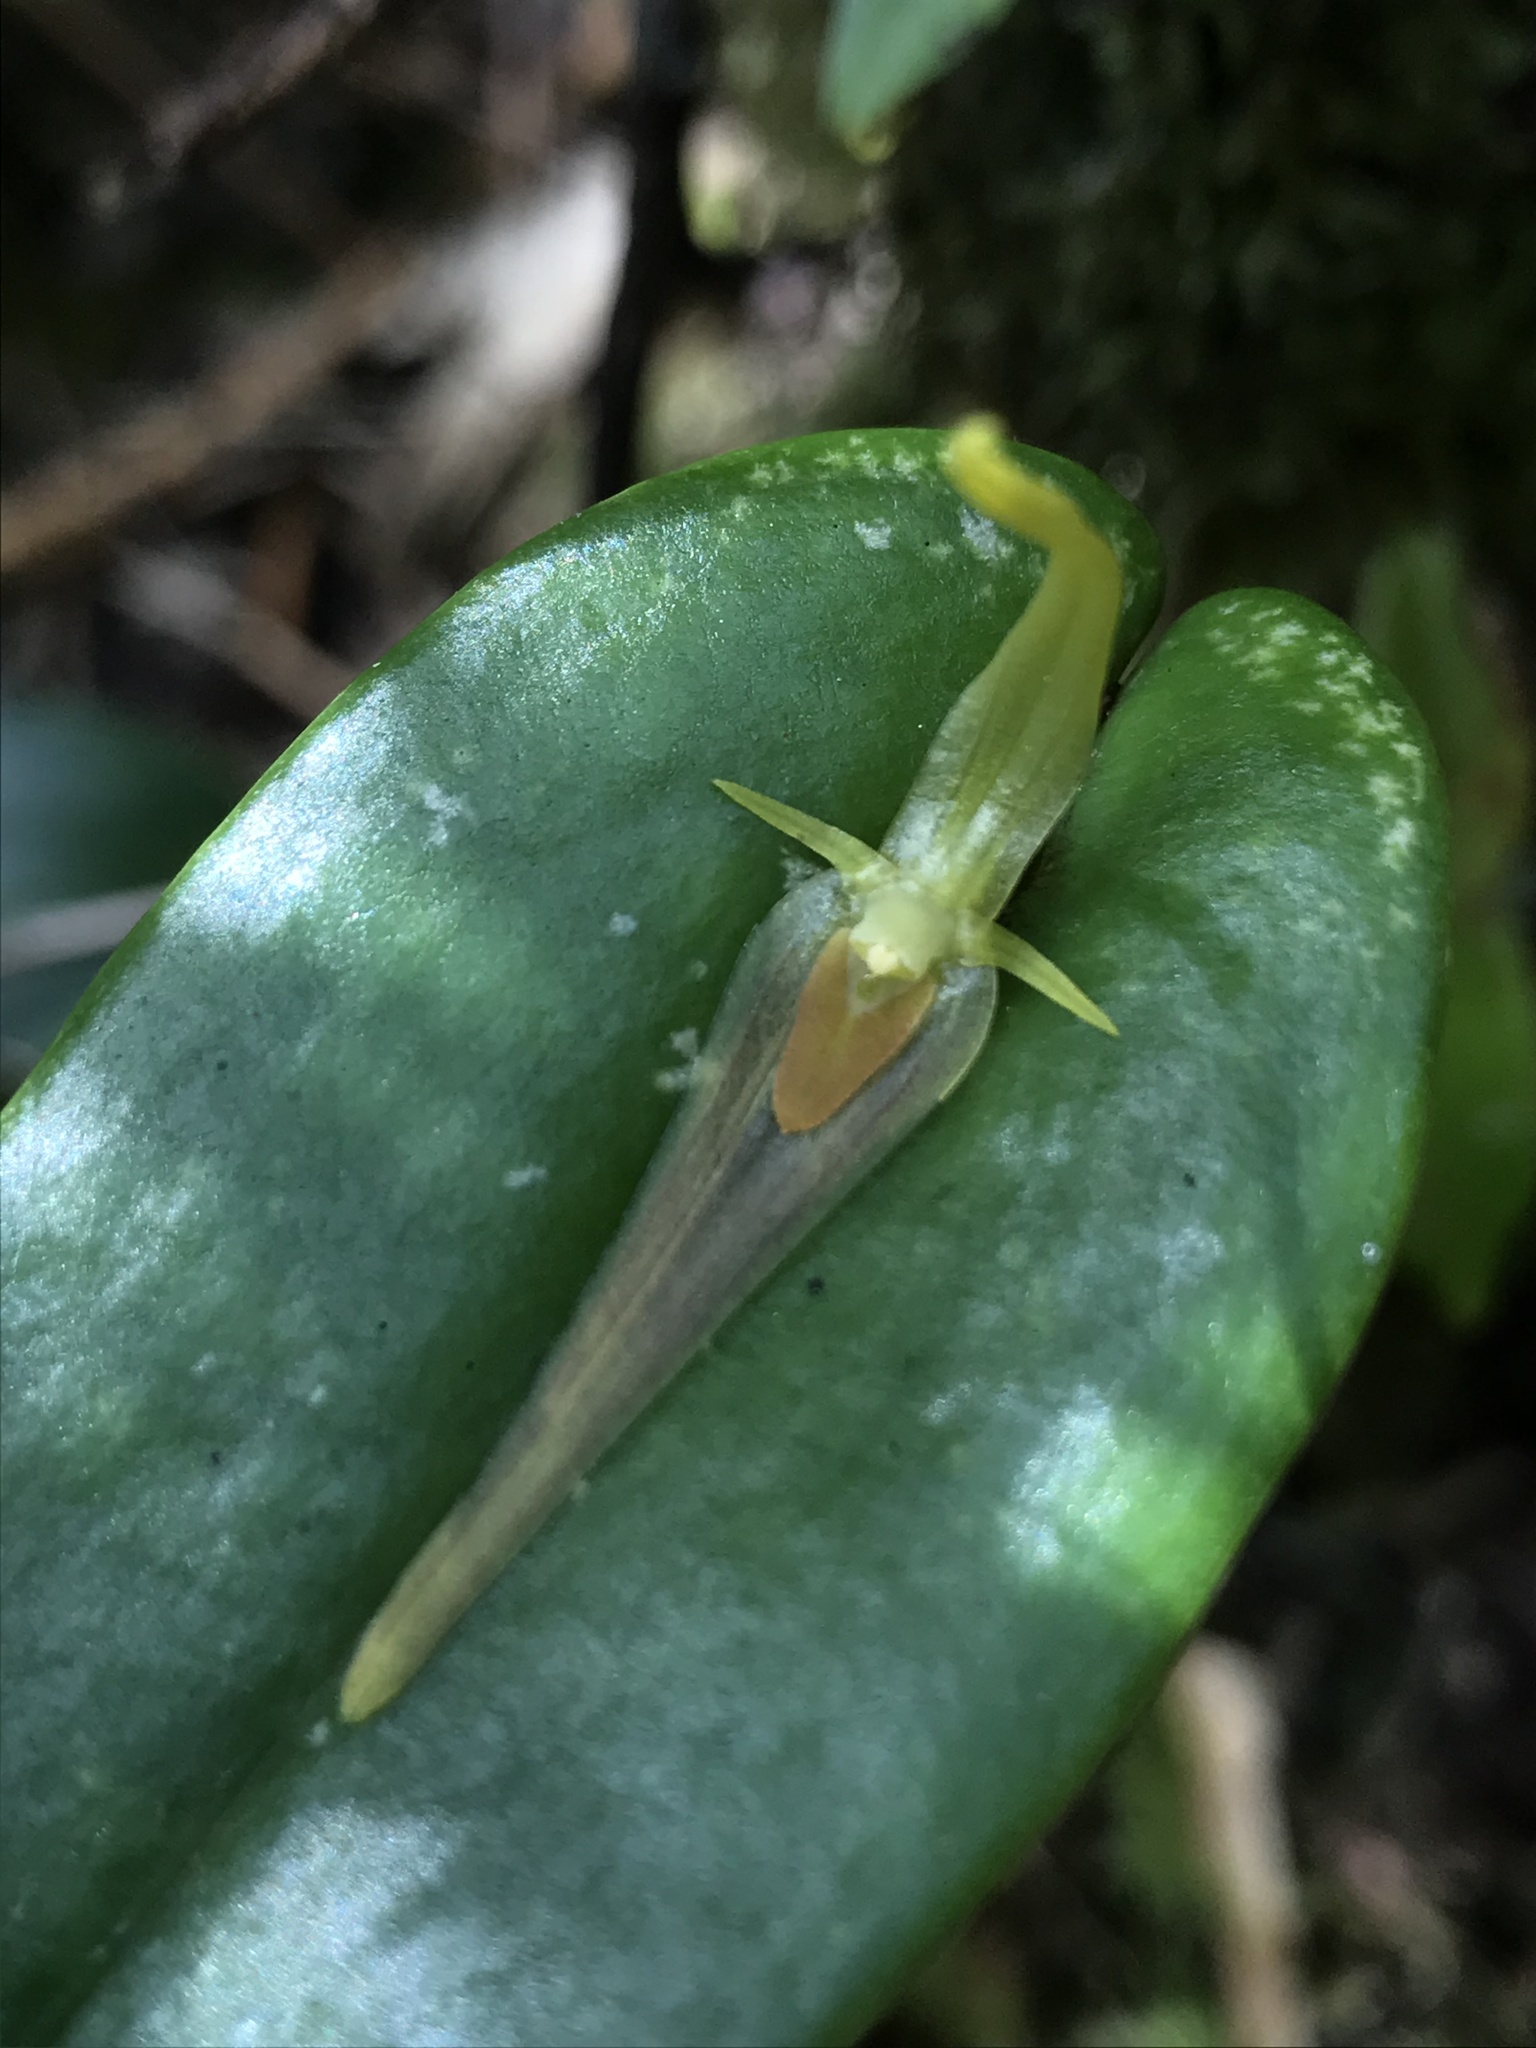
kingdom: Plantae
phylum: Tracheophyta
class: Liliopsida
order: Asparagales
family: Orchidaceae
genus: Pleurothallis
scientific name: Pleurothallis microcardia
